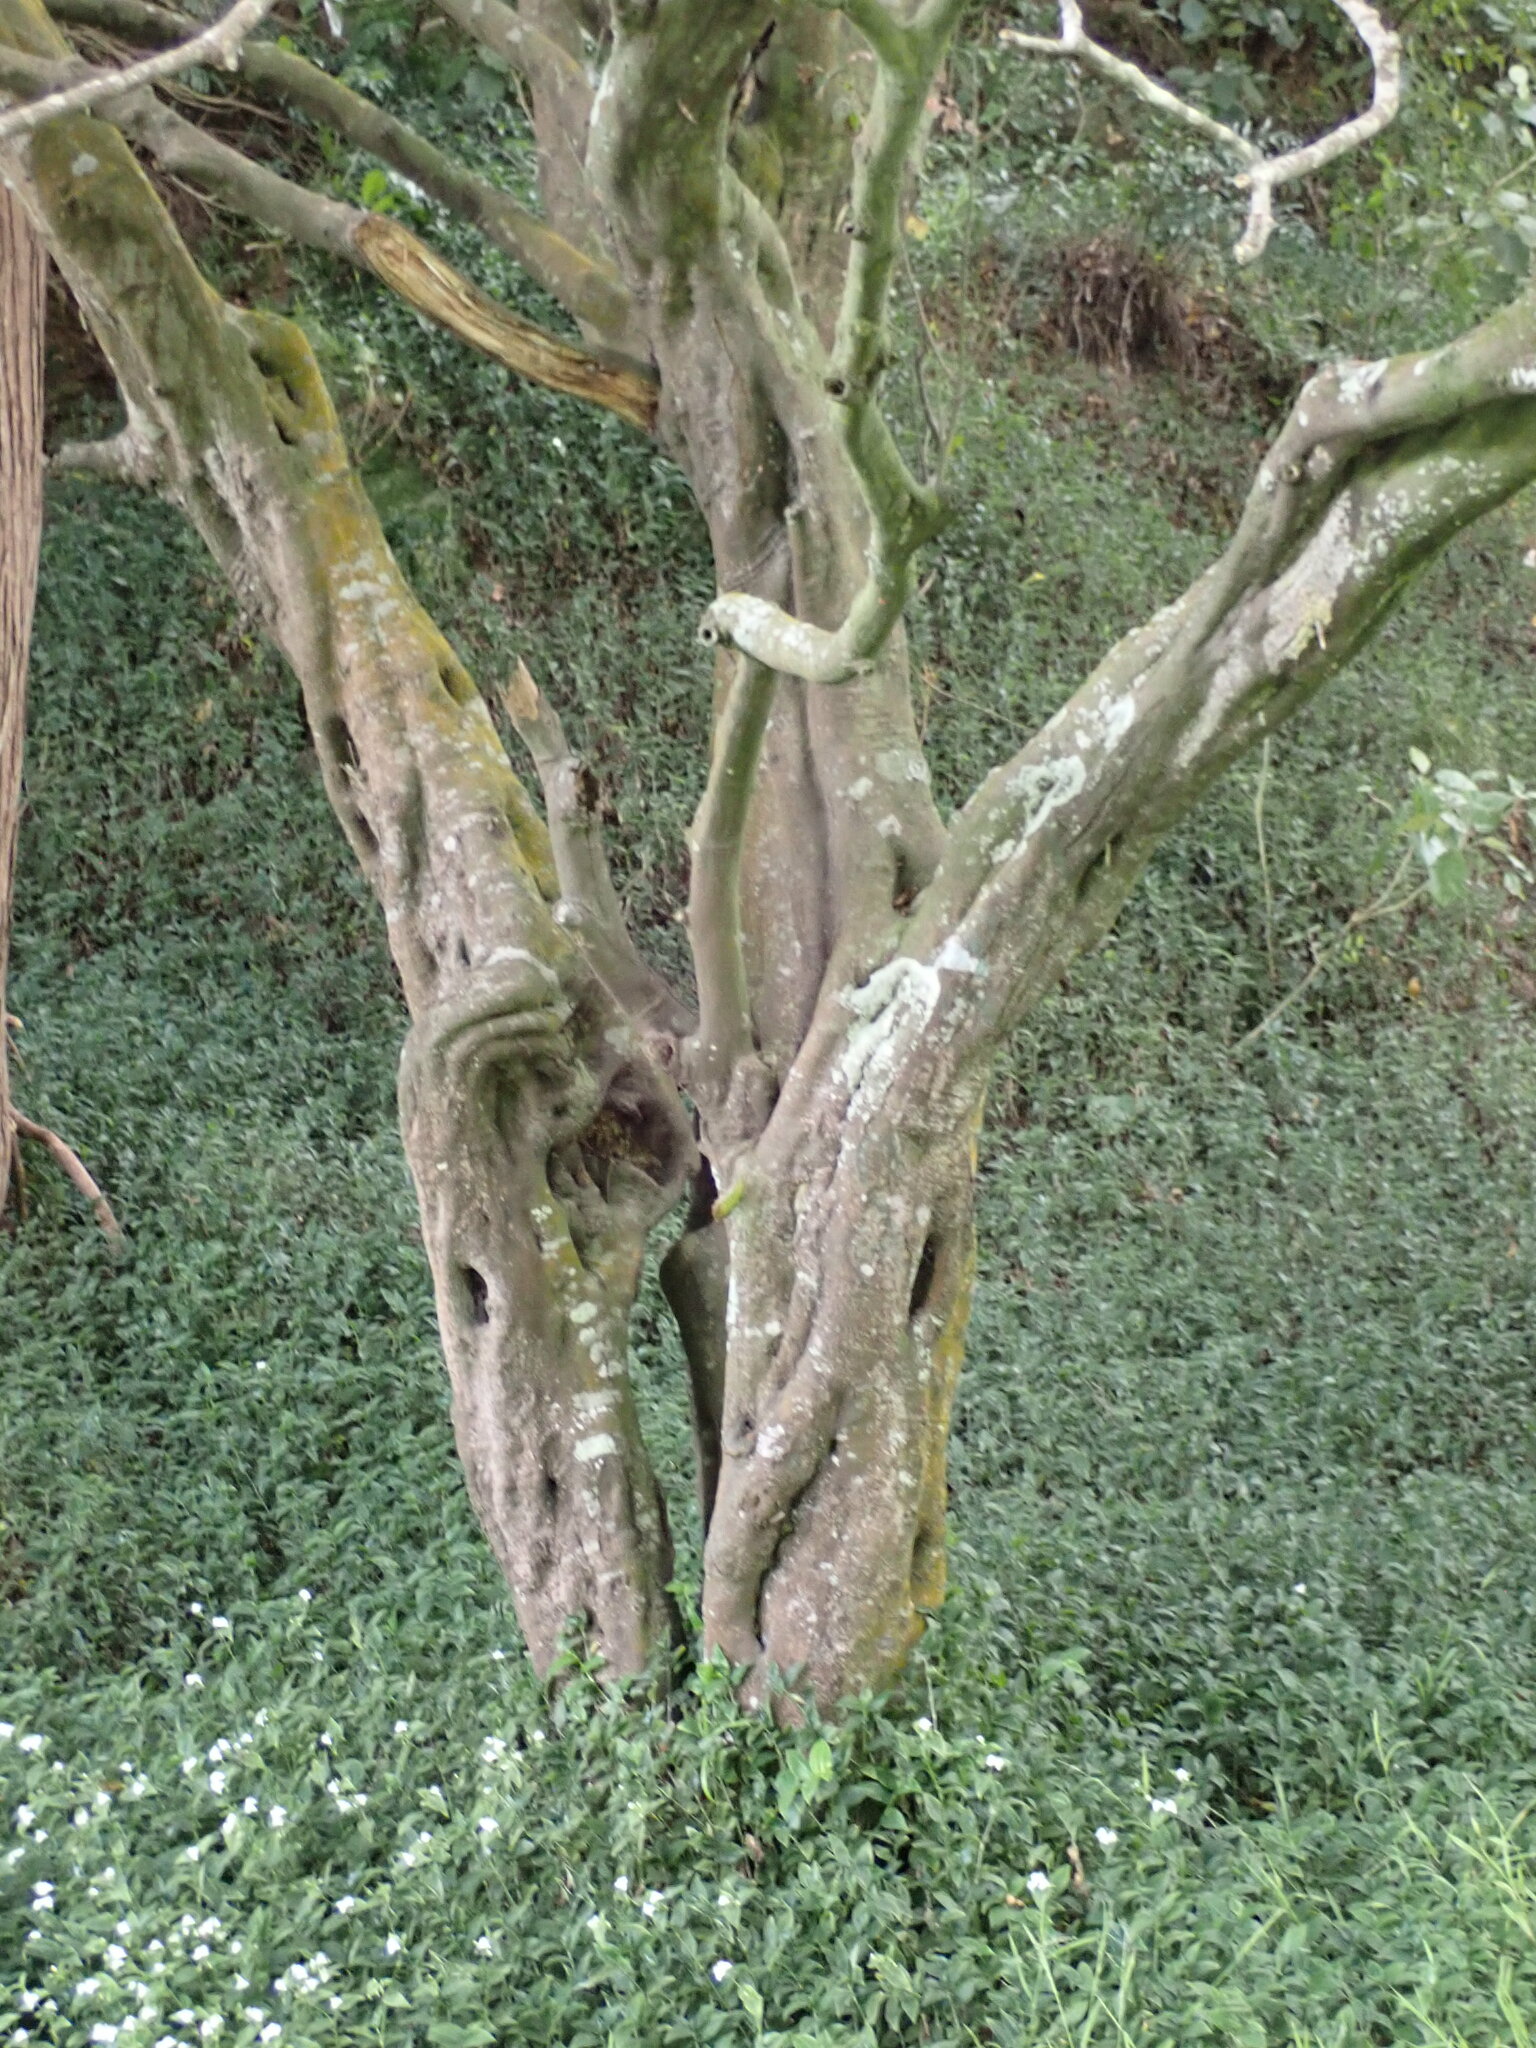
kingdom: Plantae
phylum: Tracheophyta
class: Magnoliopsida
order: Sapindales
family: Sapindaceae
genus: Alectryon
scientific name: Alectryon excelsus
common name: Three kings titoki
